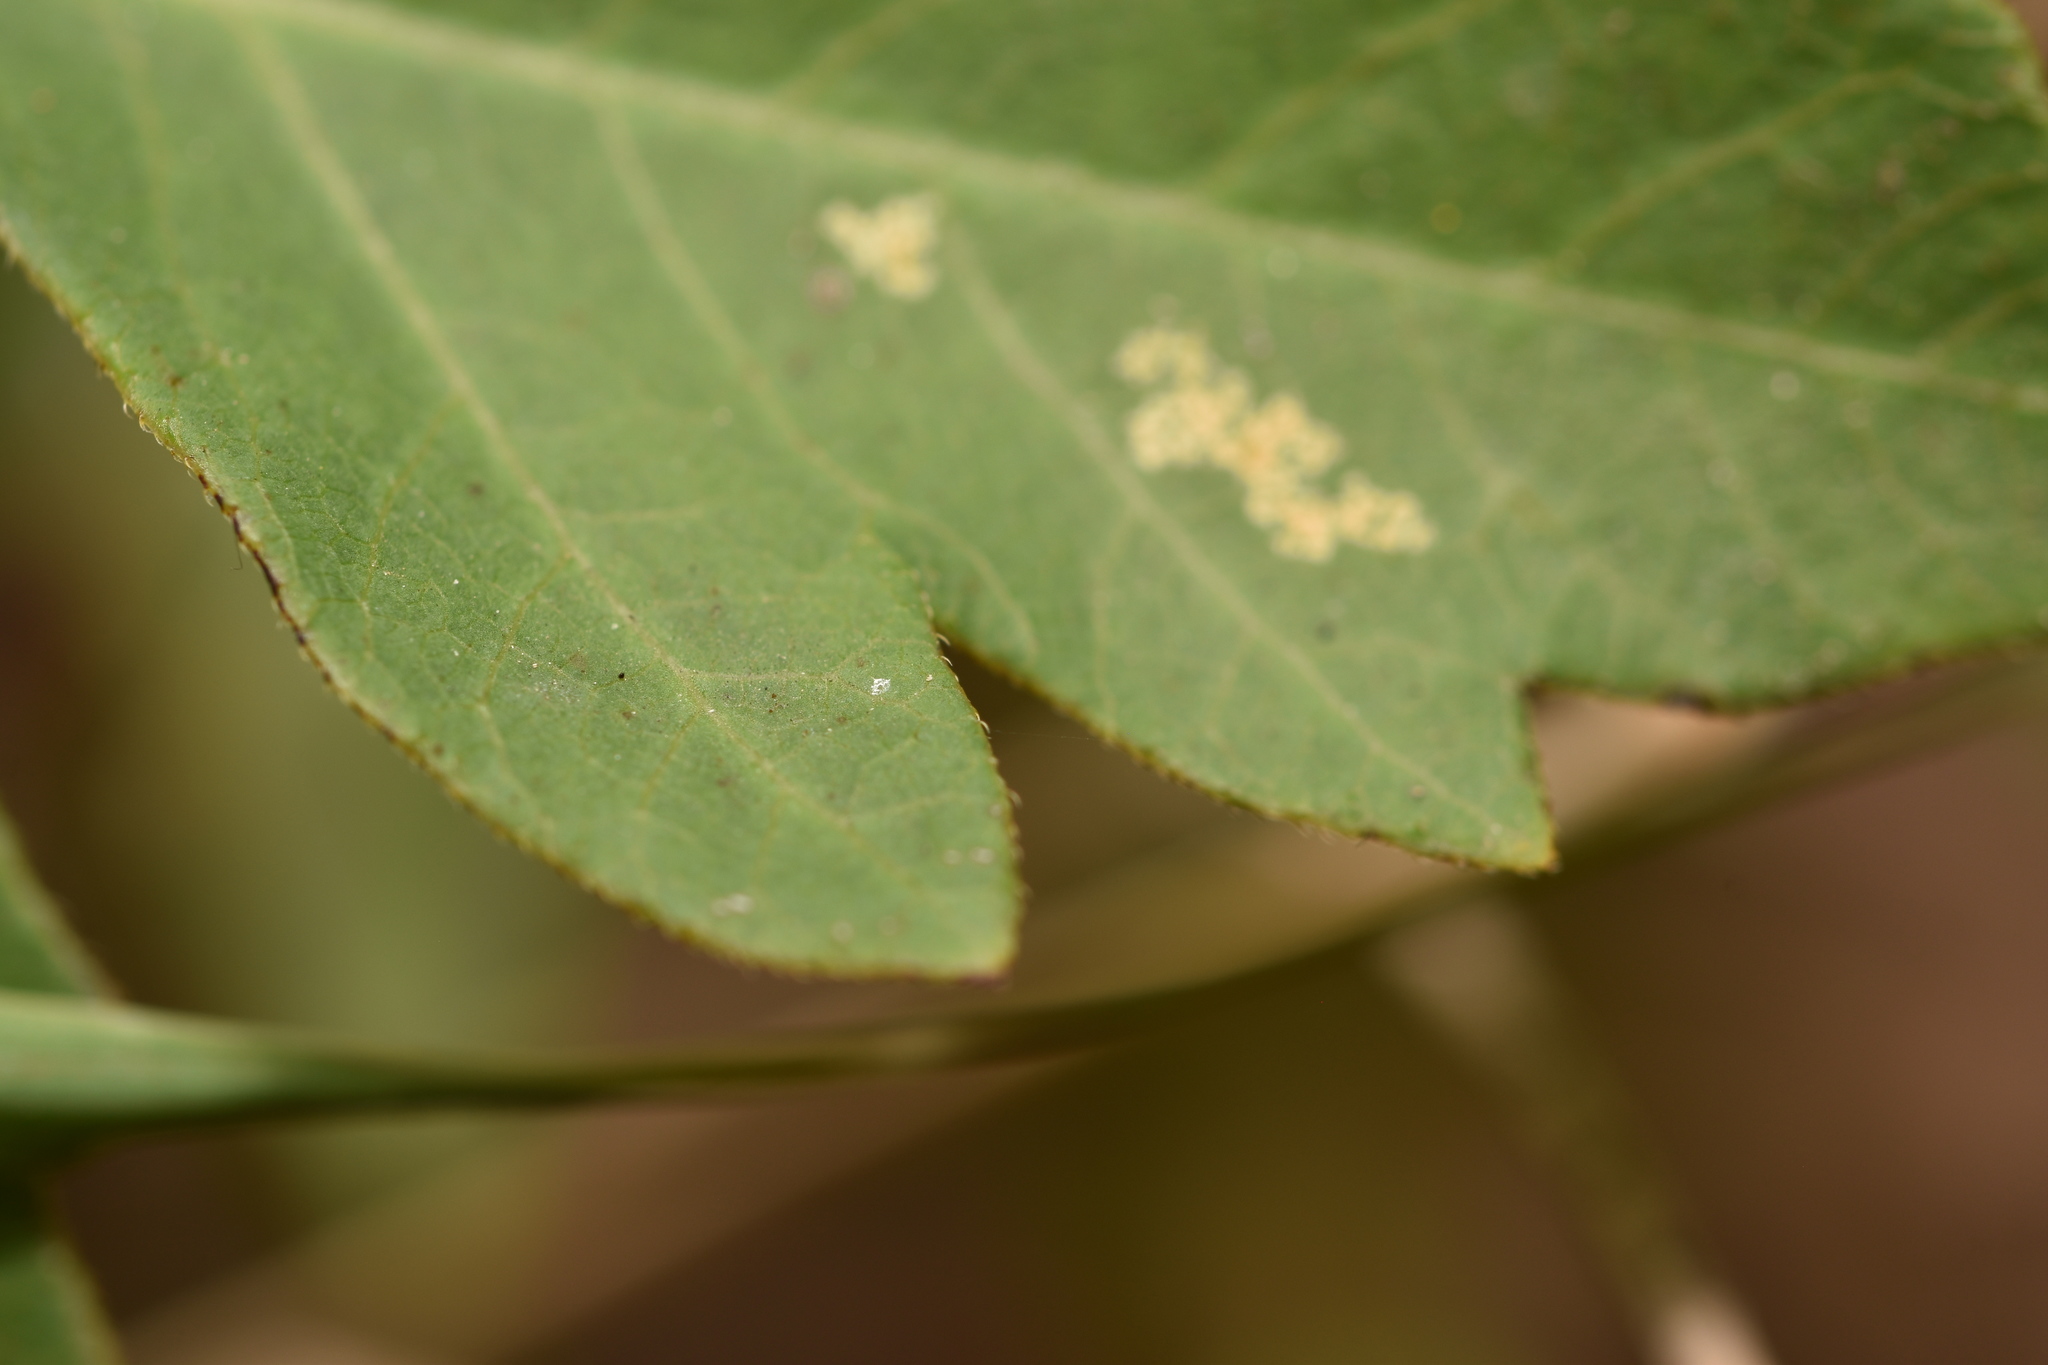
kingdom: Plantae
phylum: Tracheophyta
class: Magnoliopsida
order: Sapindales
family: Anacardiaceae
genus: Toxicodendron
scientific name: Toxicodendron radicans
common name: Poison ivy
